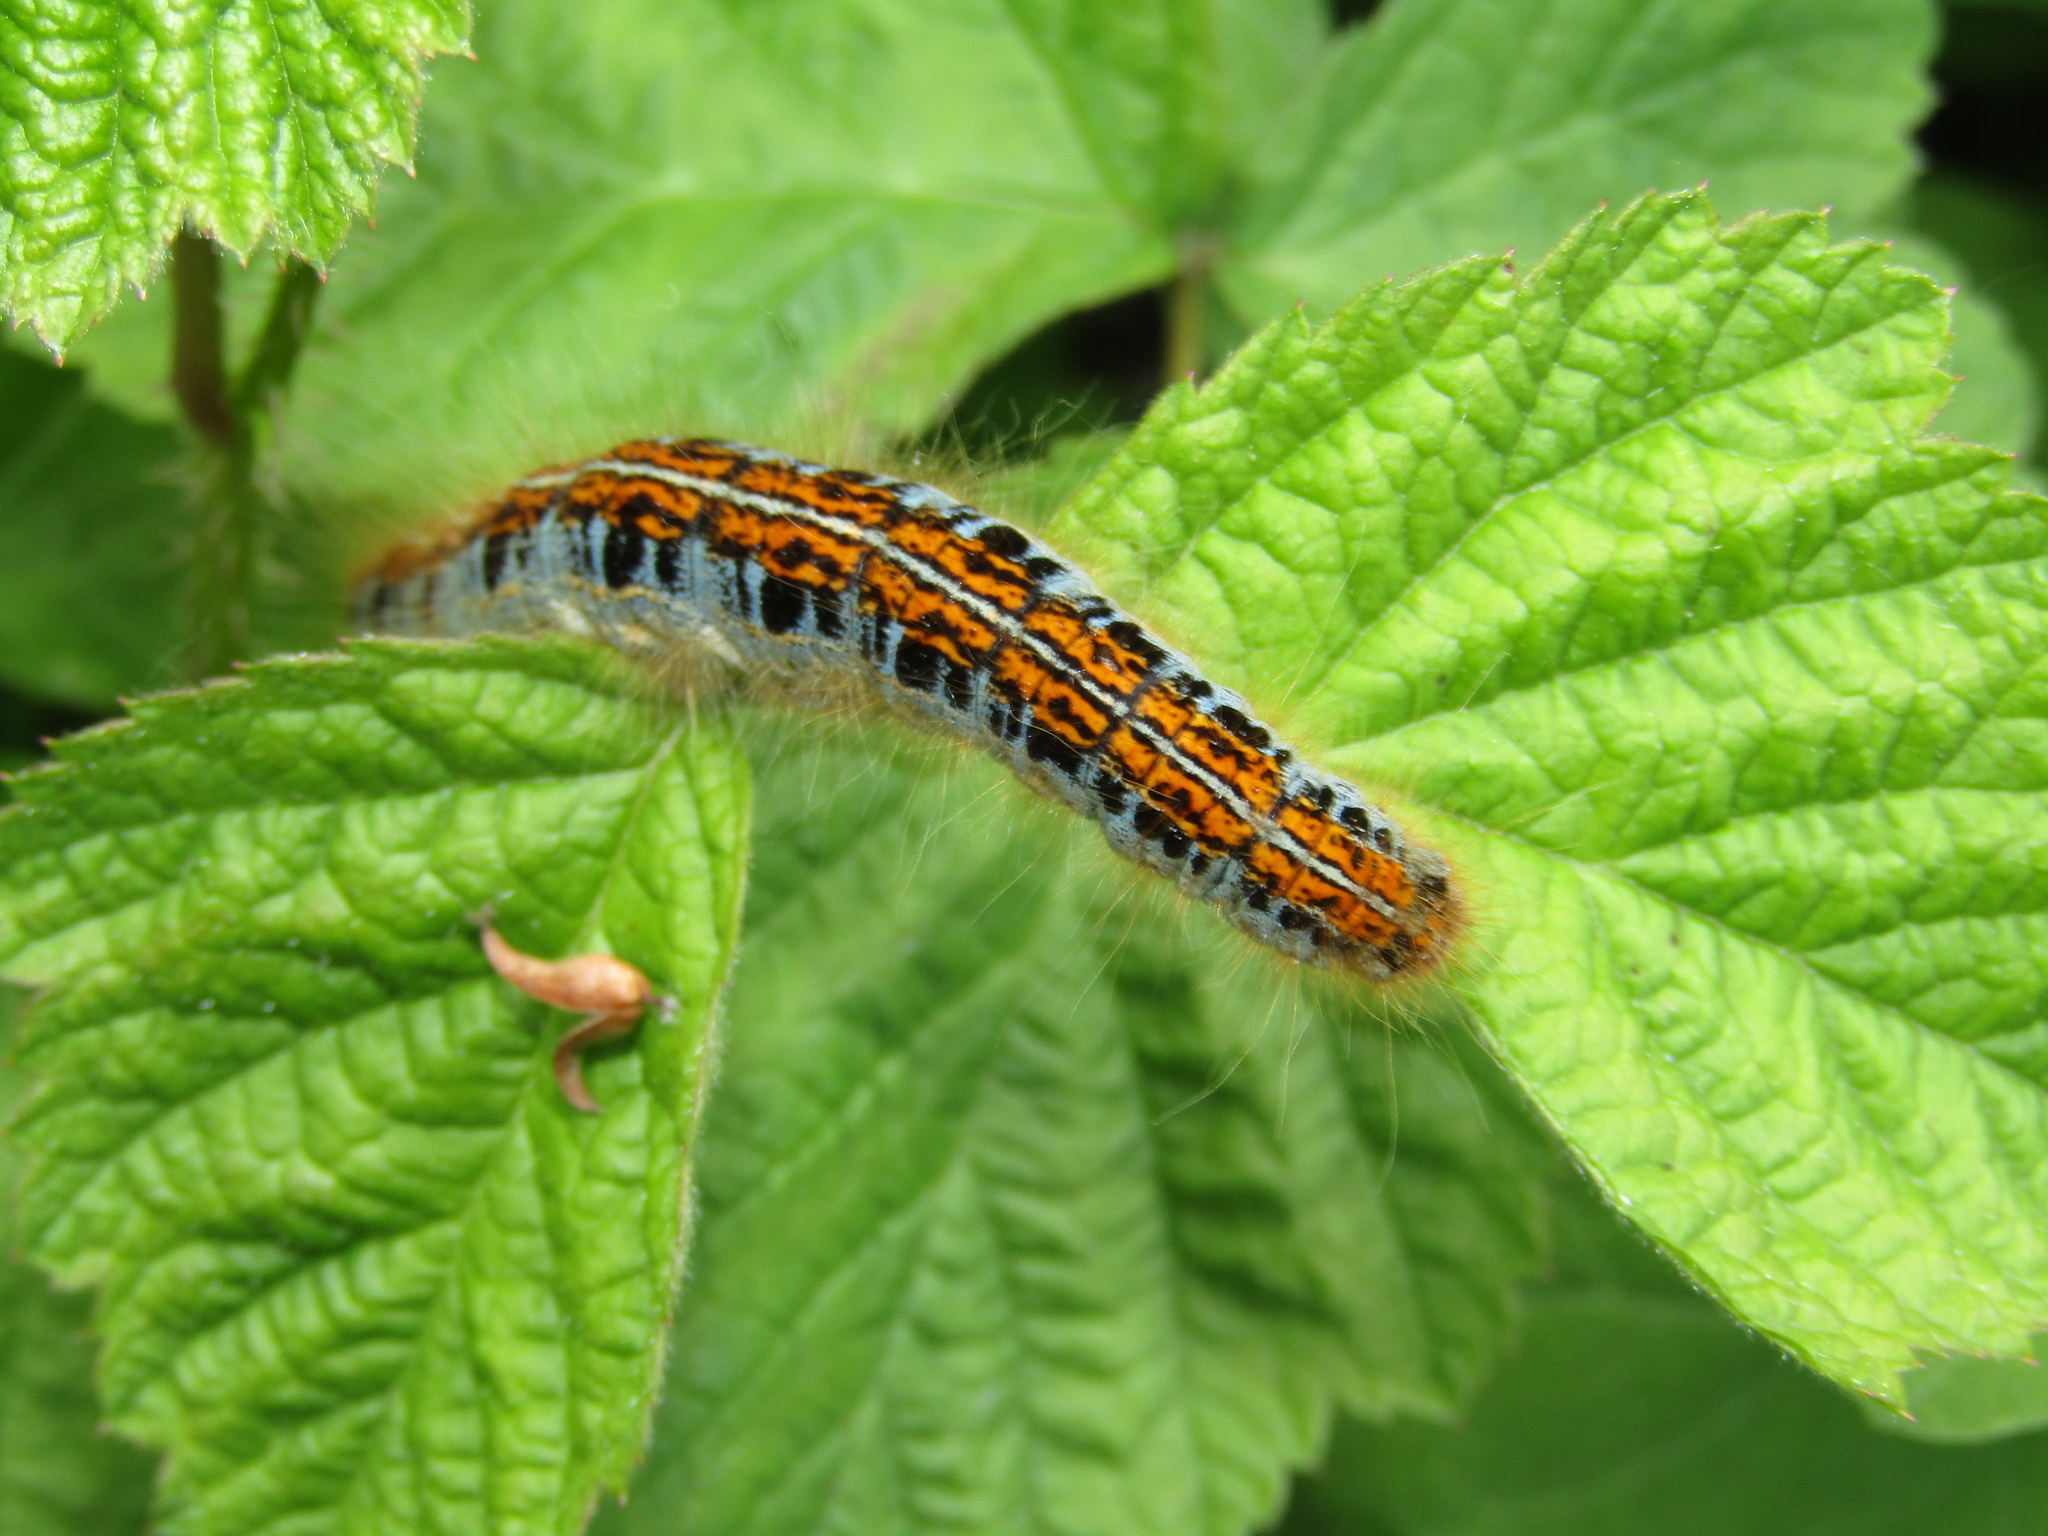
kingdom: Animalia
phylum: Arthropoda
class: Insecta
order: Lepidoptera
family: Lasiocampidae
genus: Malacosoma
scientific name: Malacosoma castrense
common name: Ground lackey
